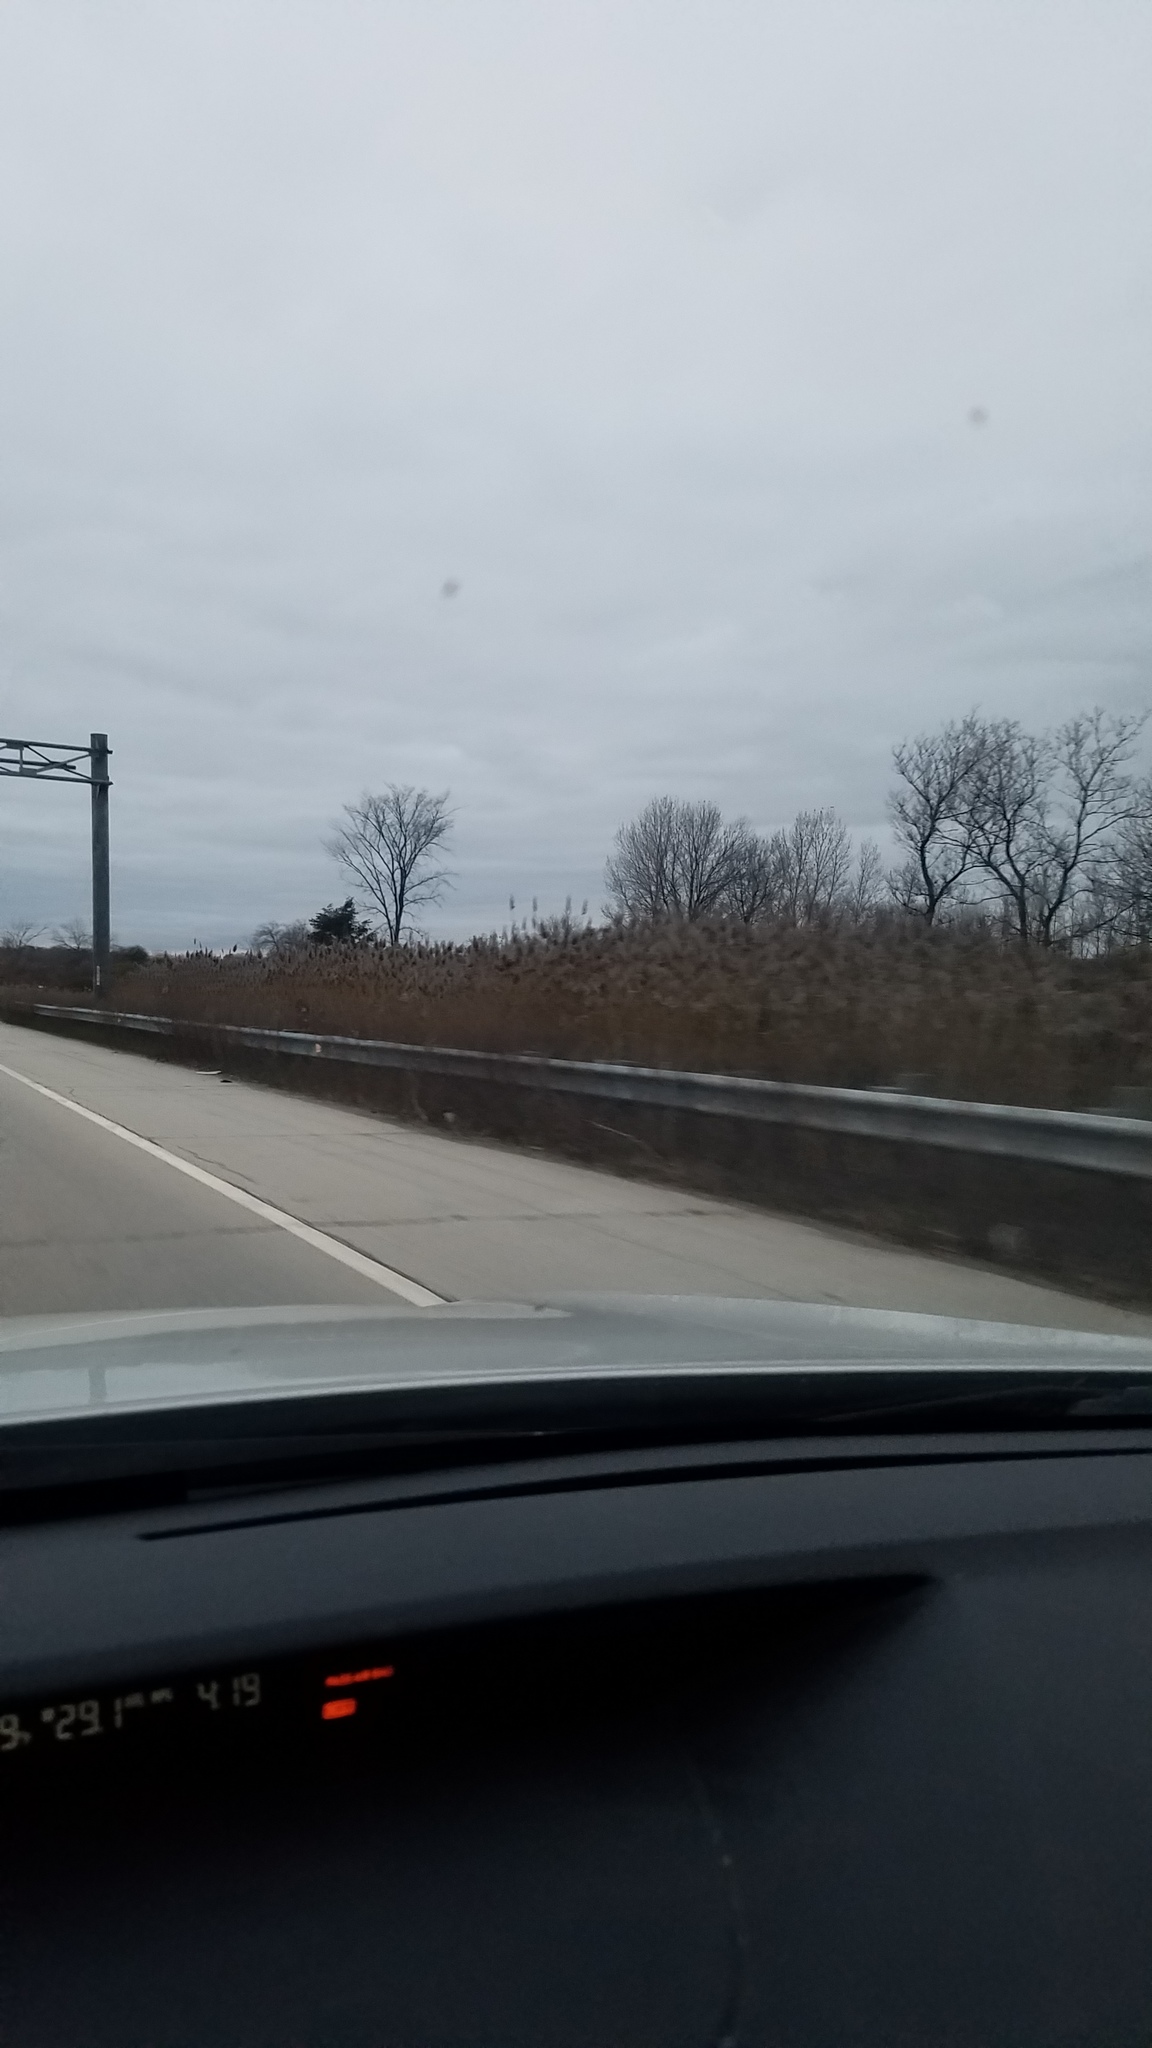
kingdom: Plantae
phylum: Tracheophyta
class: Liliopsida
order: Poales
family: Poaceae
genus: Phragmites
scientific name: Phragmites australis
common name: Common reed
